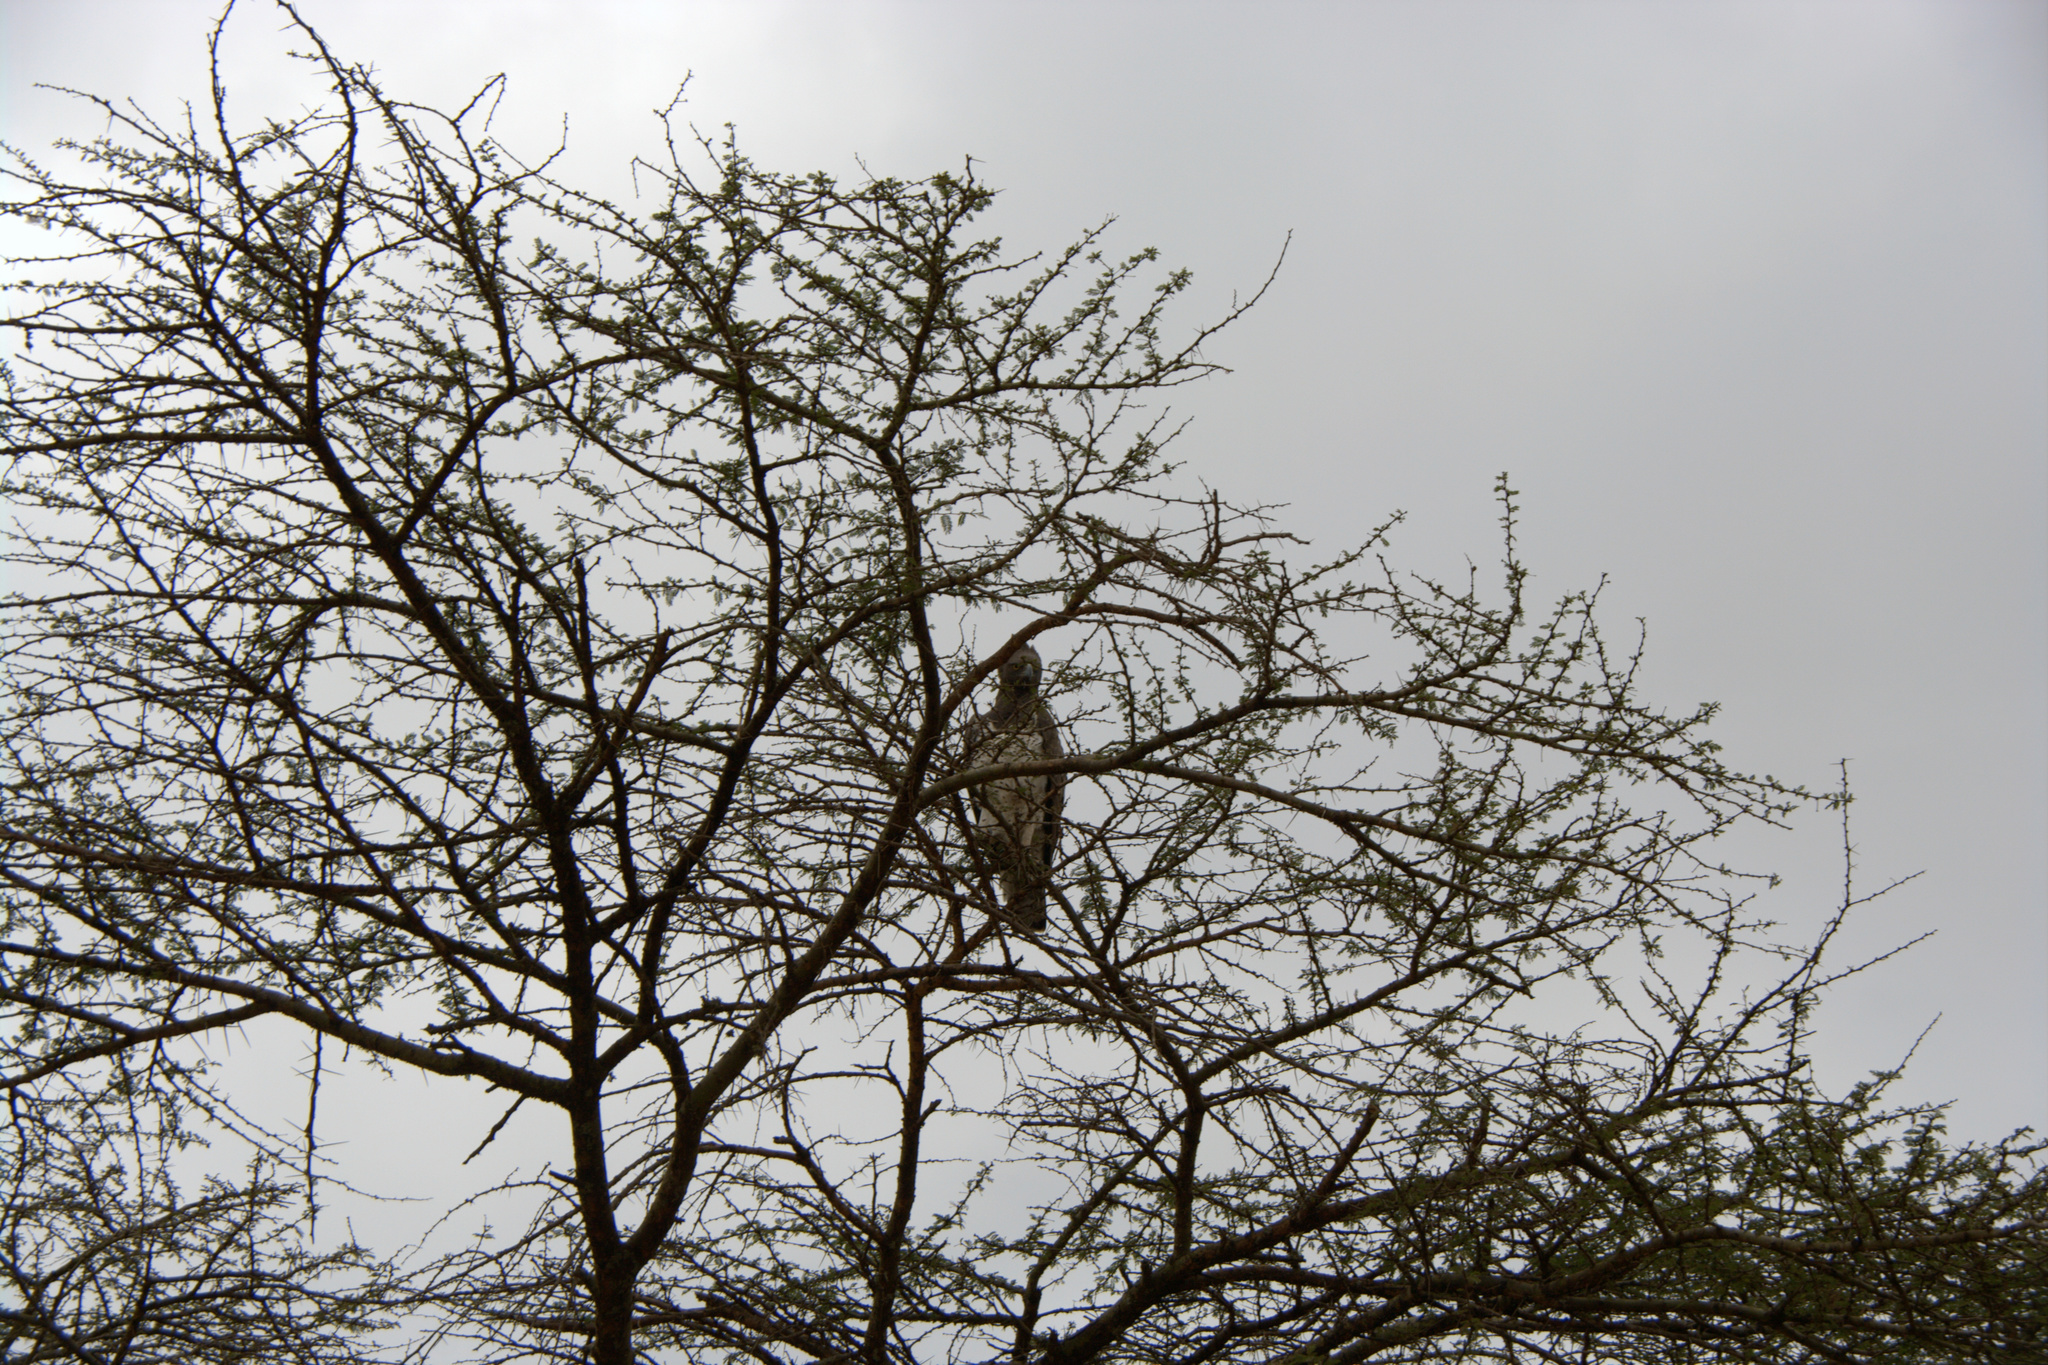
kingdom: Animalia
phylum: Chordata
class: Aves
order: Accipitriformes
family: Accipitridae
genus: Polemaetus
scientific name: Polemaetus bellicosus
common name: Martial eagle
